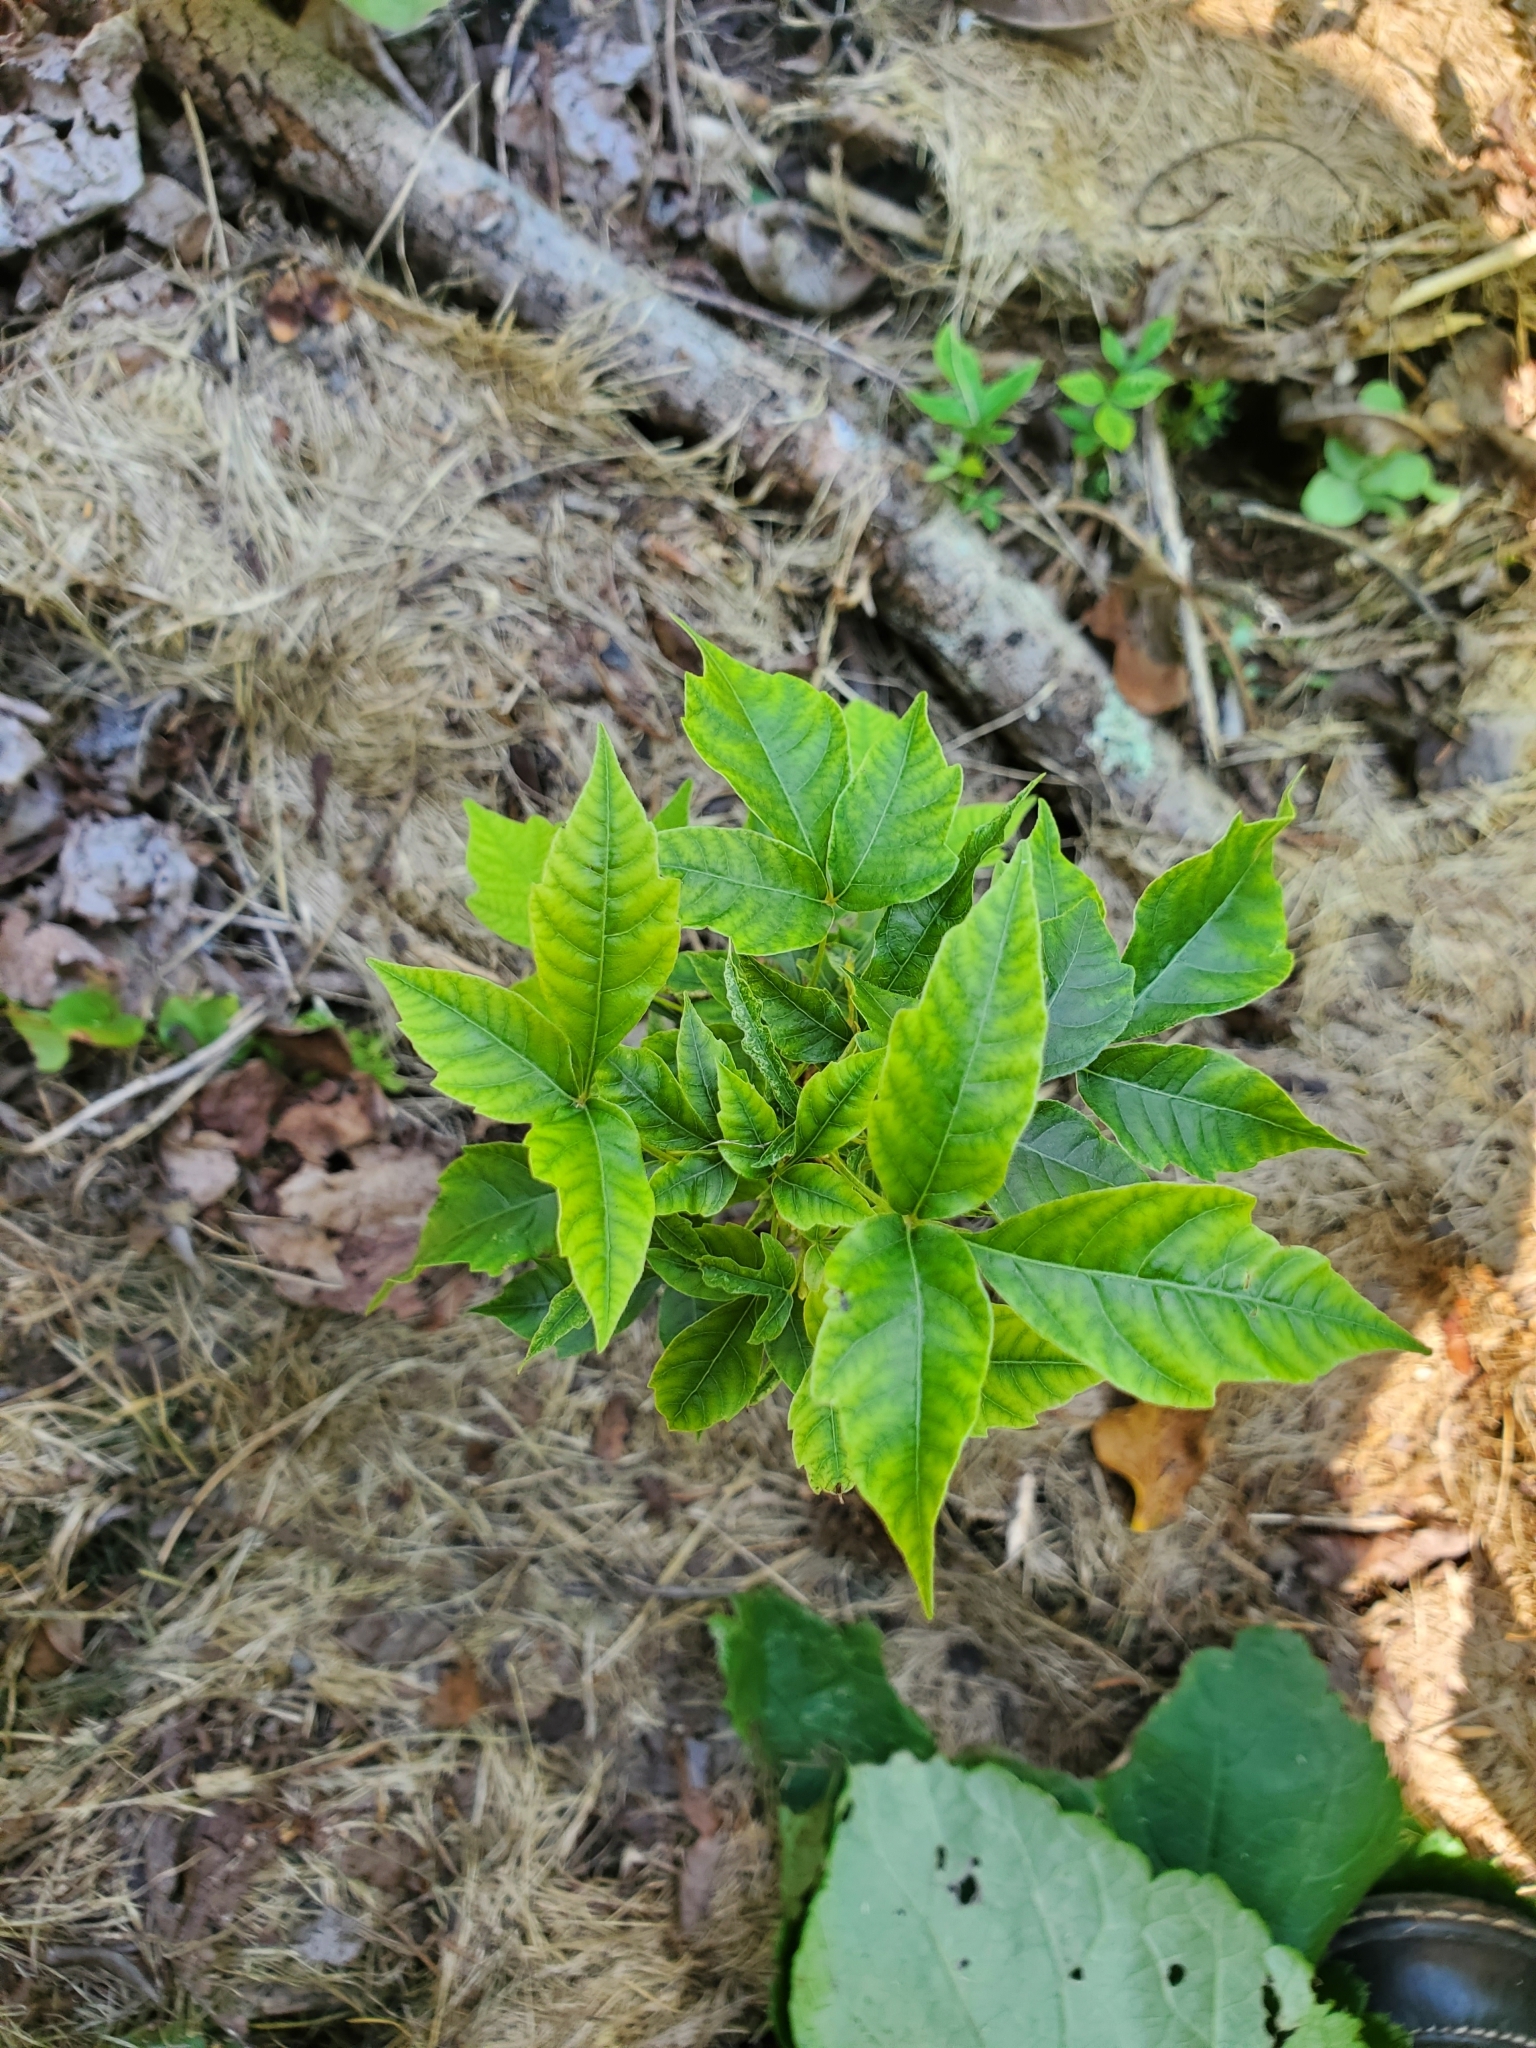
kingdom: Plantae
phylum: Tracheophyta
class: Magnoliopsida
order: Sapindales
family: Anacardiaceae
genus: Toxicodendron
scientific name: Toxicodendron radicans
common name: Poison ivy
